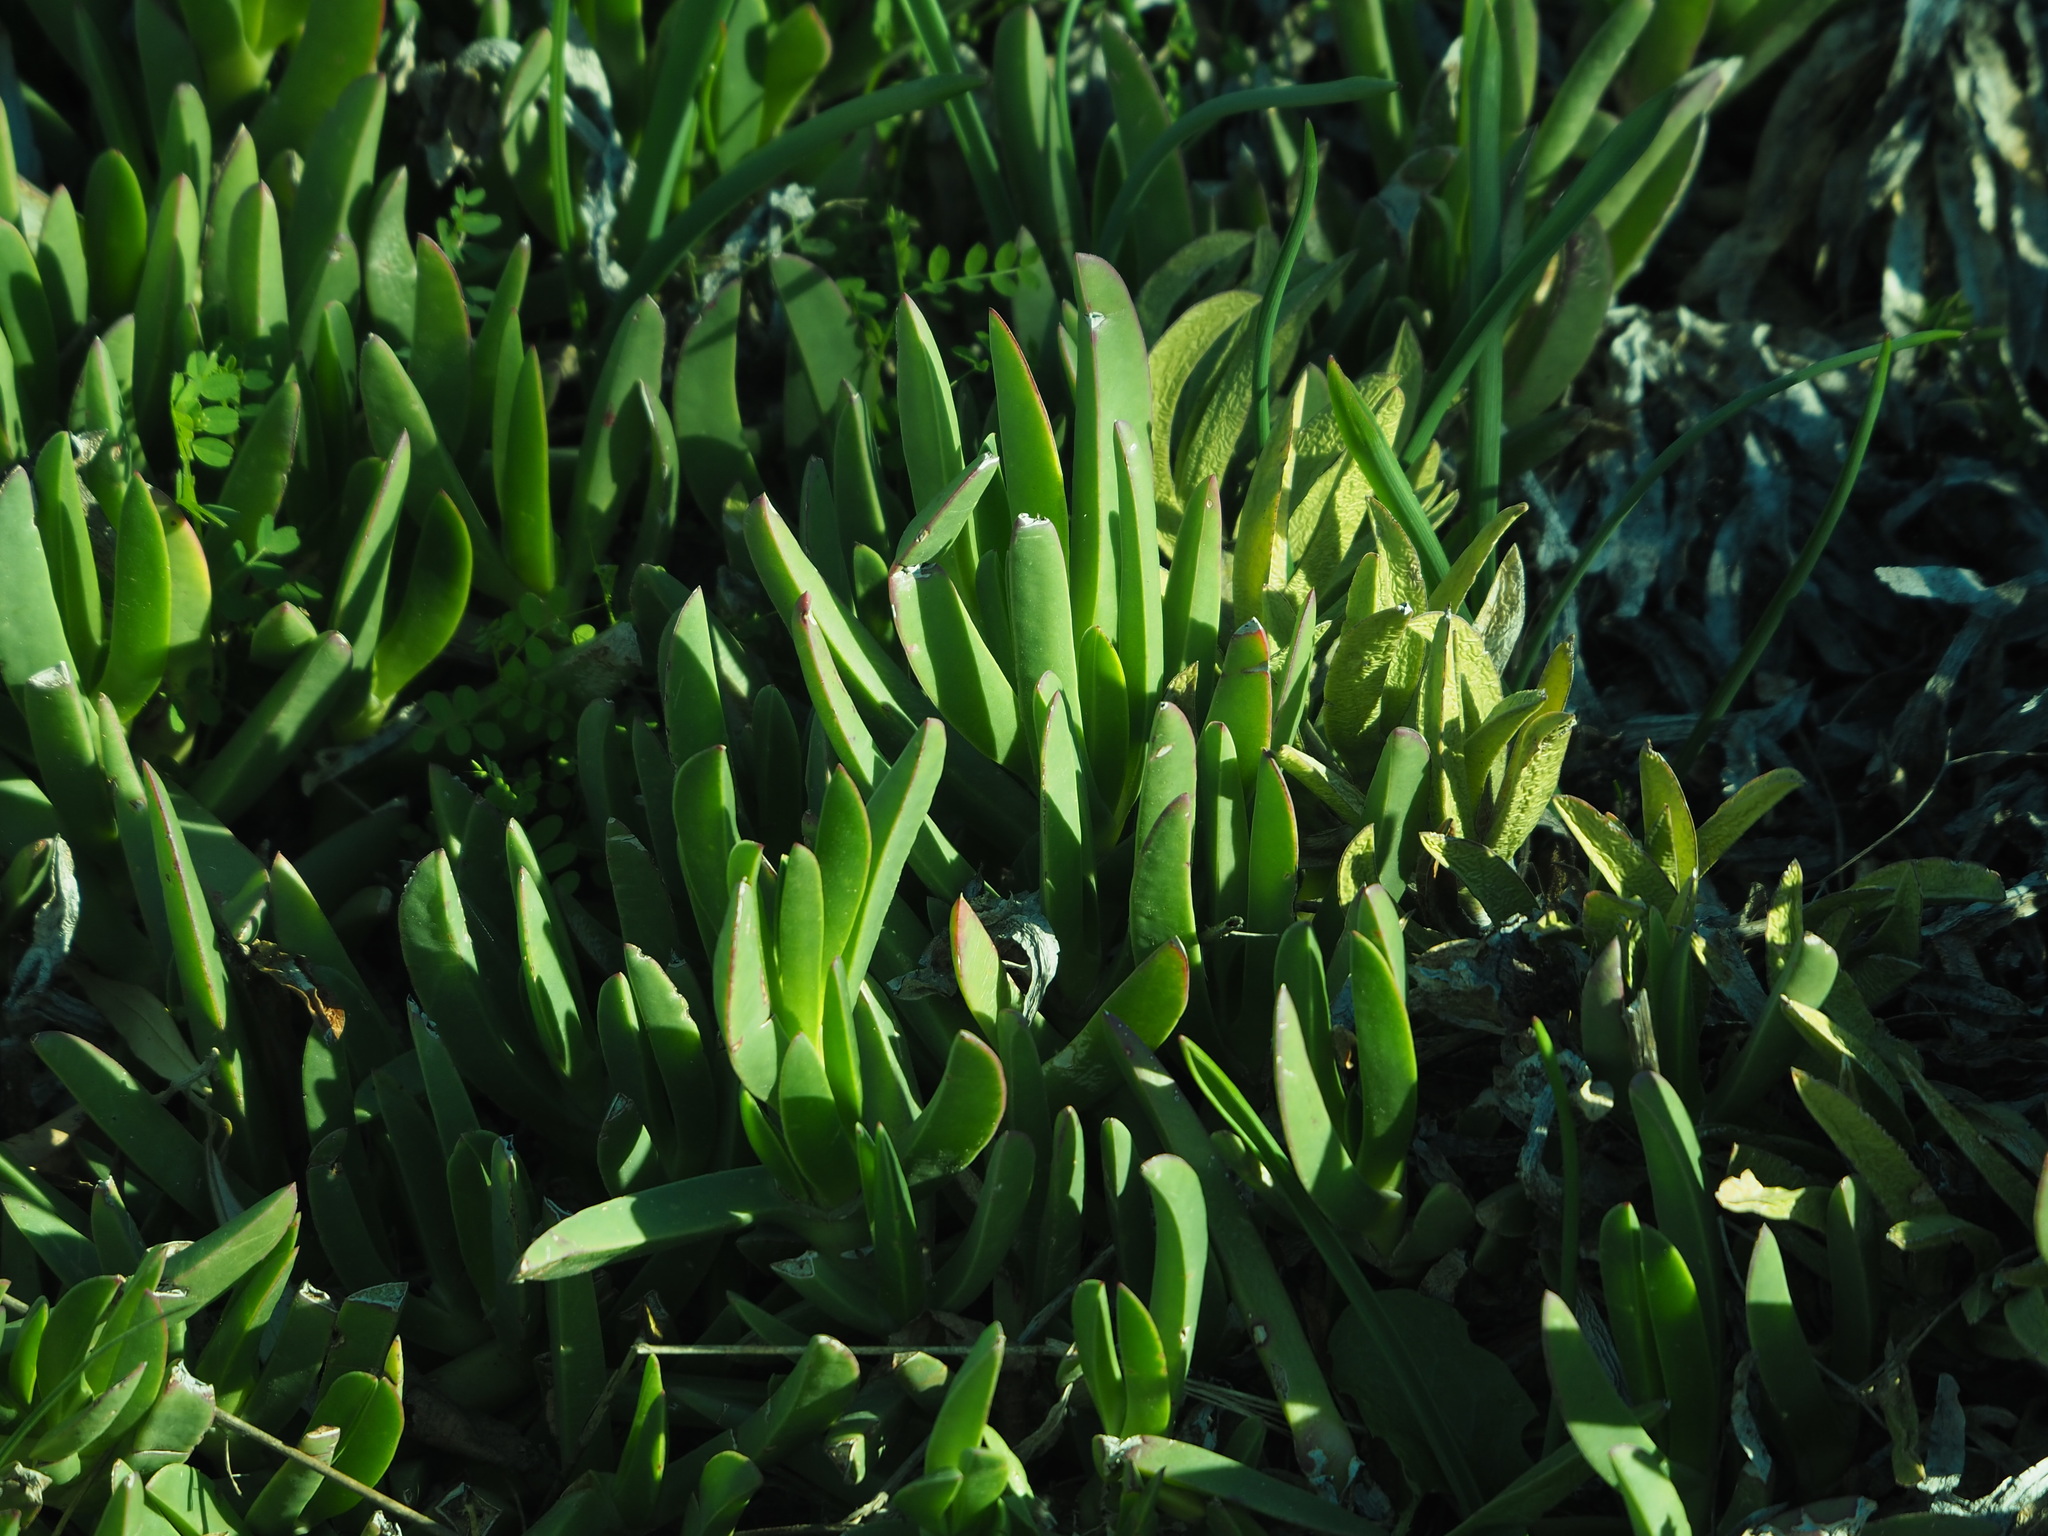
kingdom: Plantae
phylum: Tracheophyta
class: Magnoliopsida
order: Caryophyllales
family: Aizoaceae
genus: Carpobrotus
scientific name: Carpobrotus edulis
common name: Hottentot-fig
